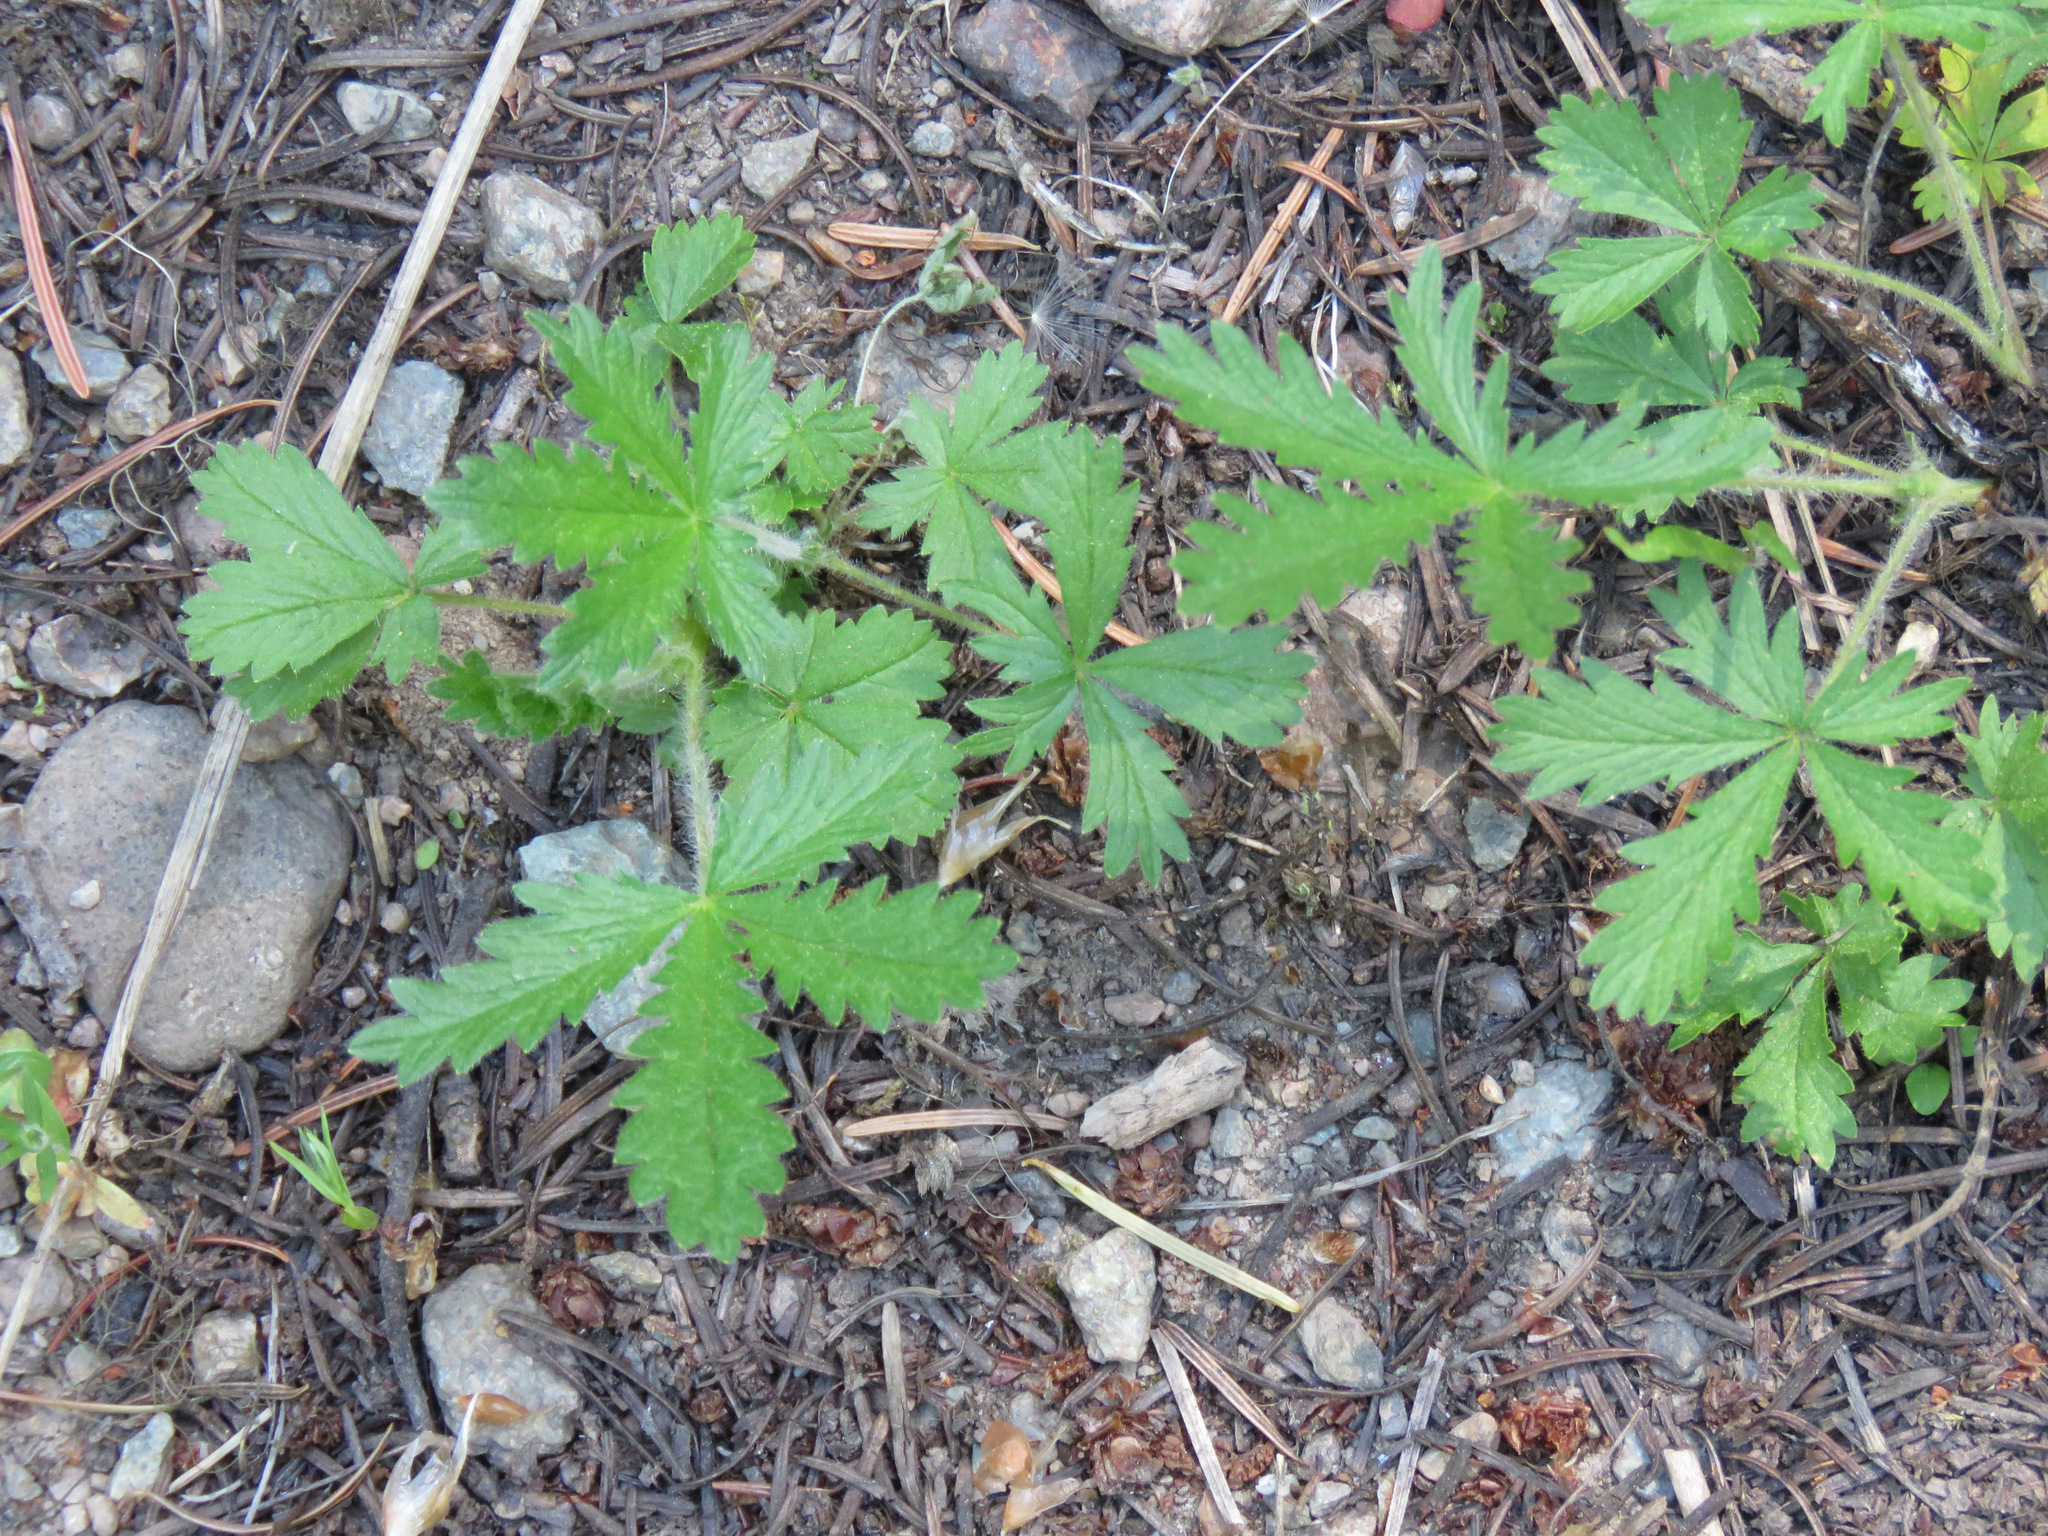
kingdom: Plantae
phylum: Tracheophyta
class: Magnoliopsida
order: Rosales
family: Rosaceae
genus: Potentilla
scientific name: Potentilla recta
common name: Sulphur cinquefoil
